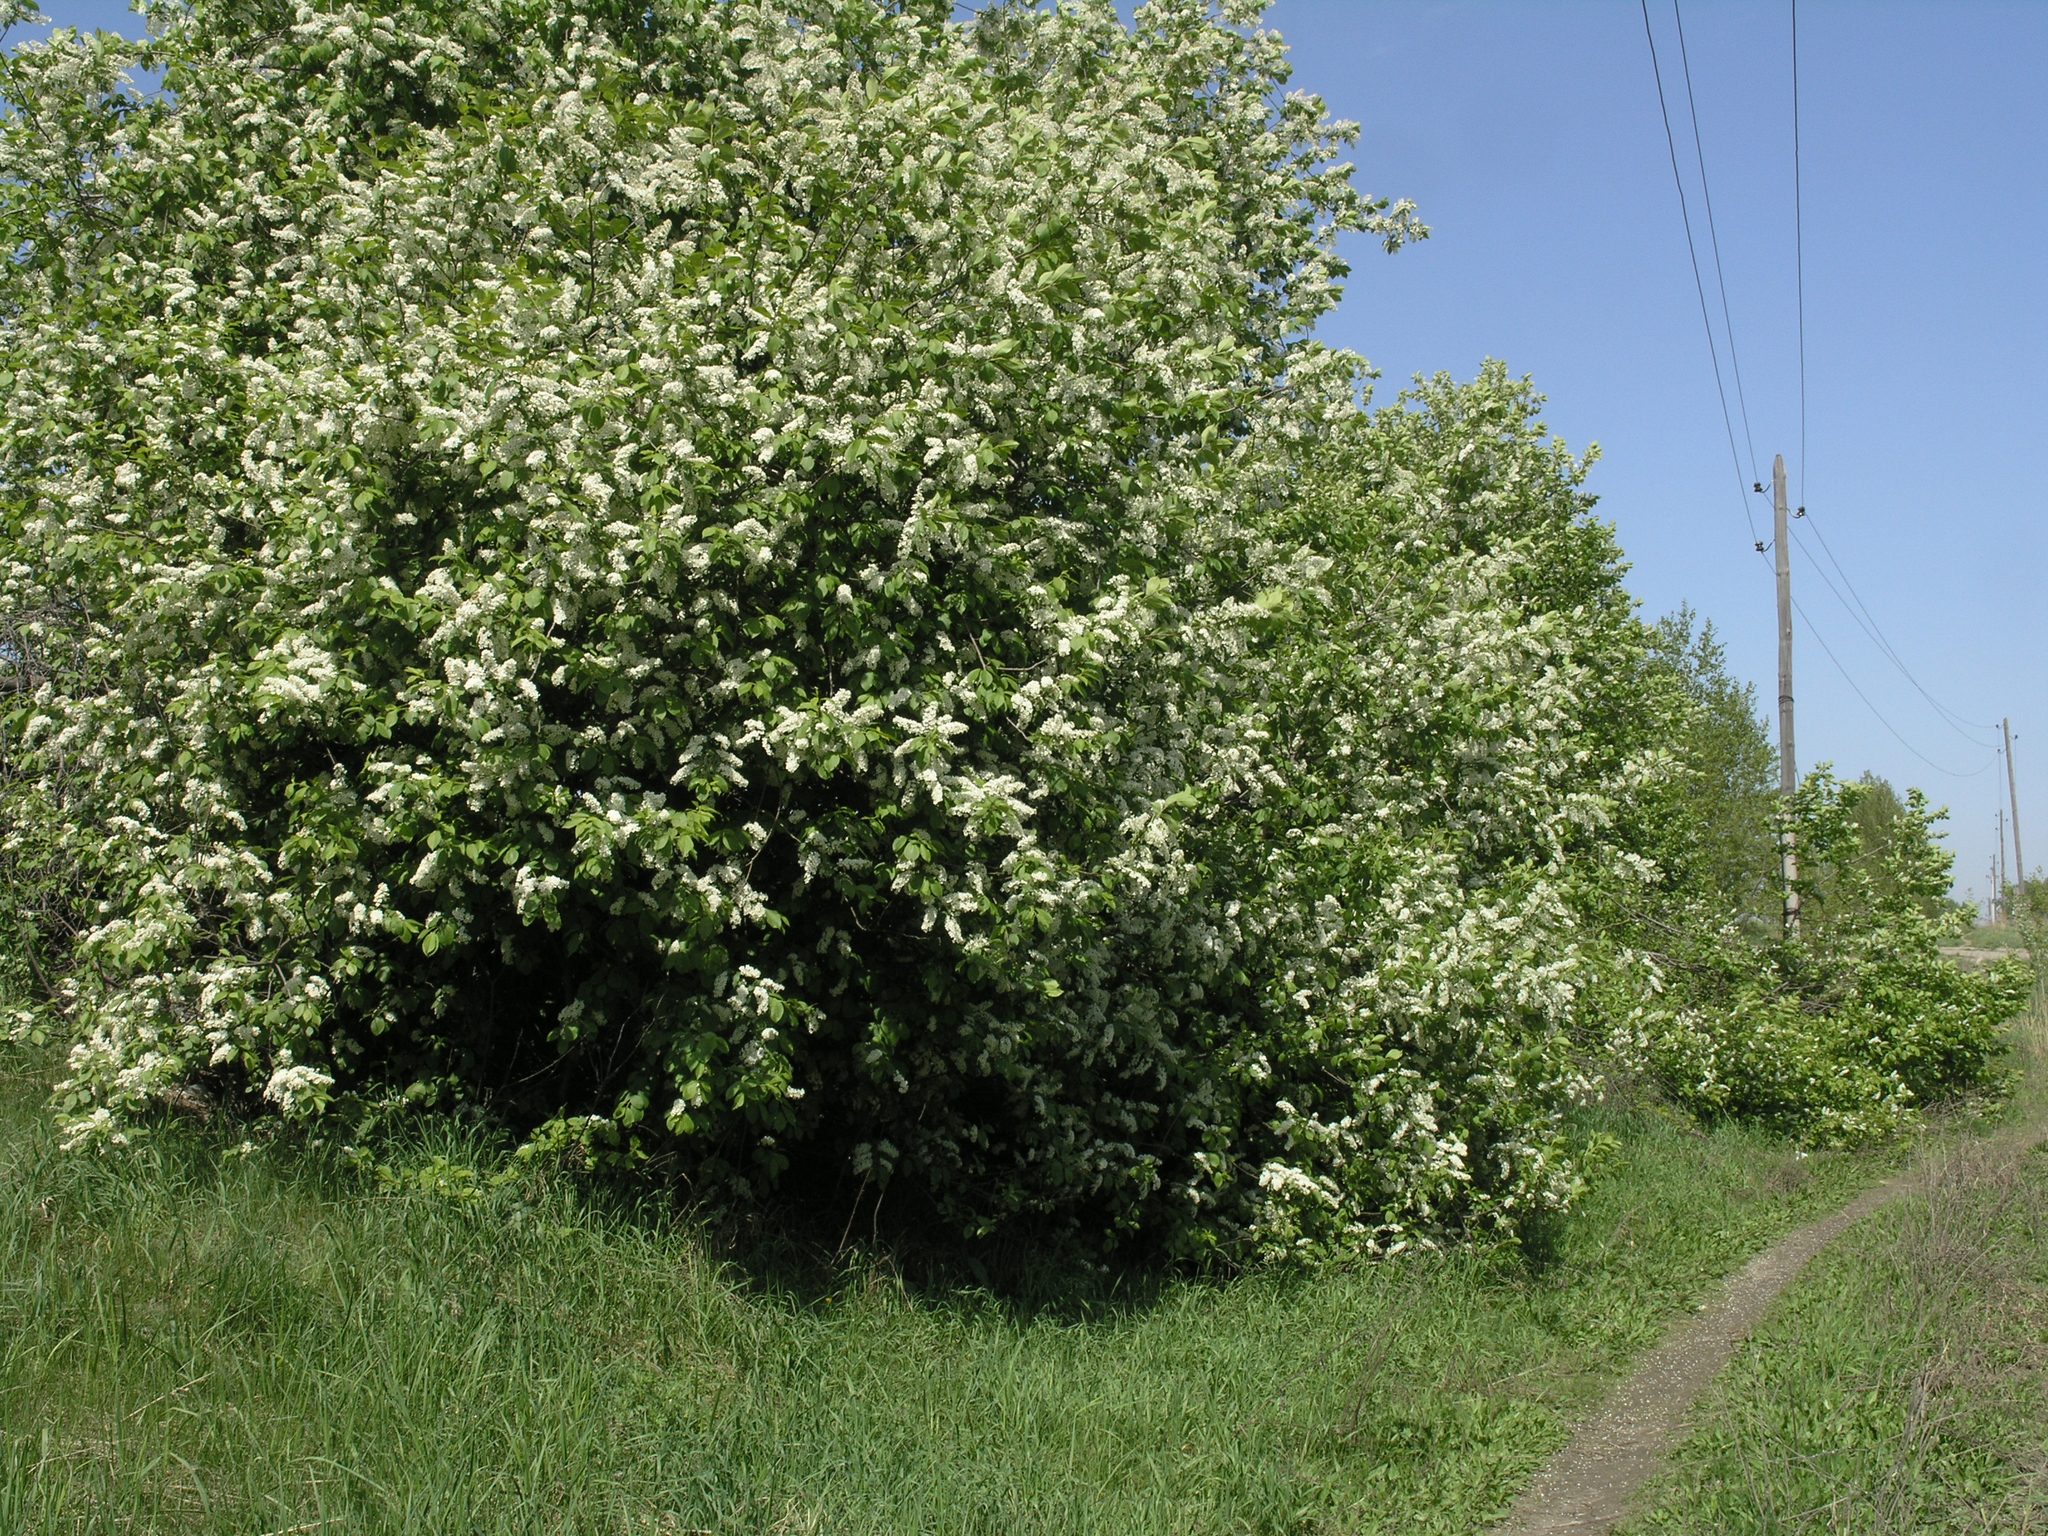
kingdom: Plantae
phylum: Tracheophyta
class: Magnoliopsida
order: Rosales
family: Rosaceae
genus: Prunus
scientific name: Prunus padus
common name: Bird cherry
